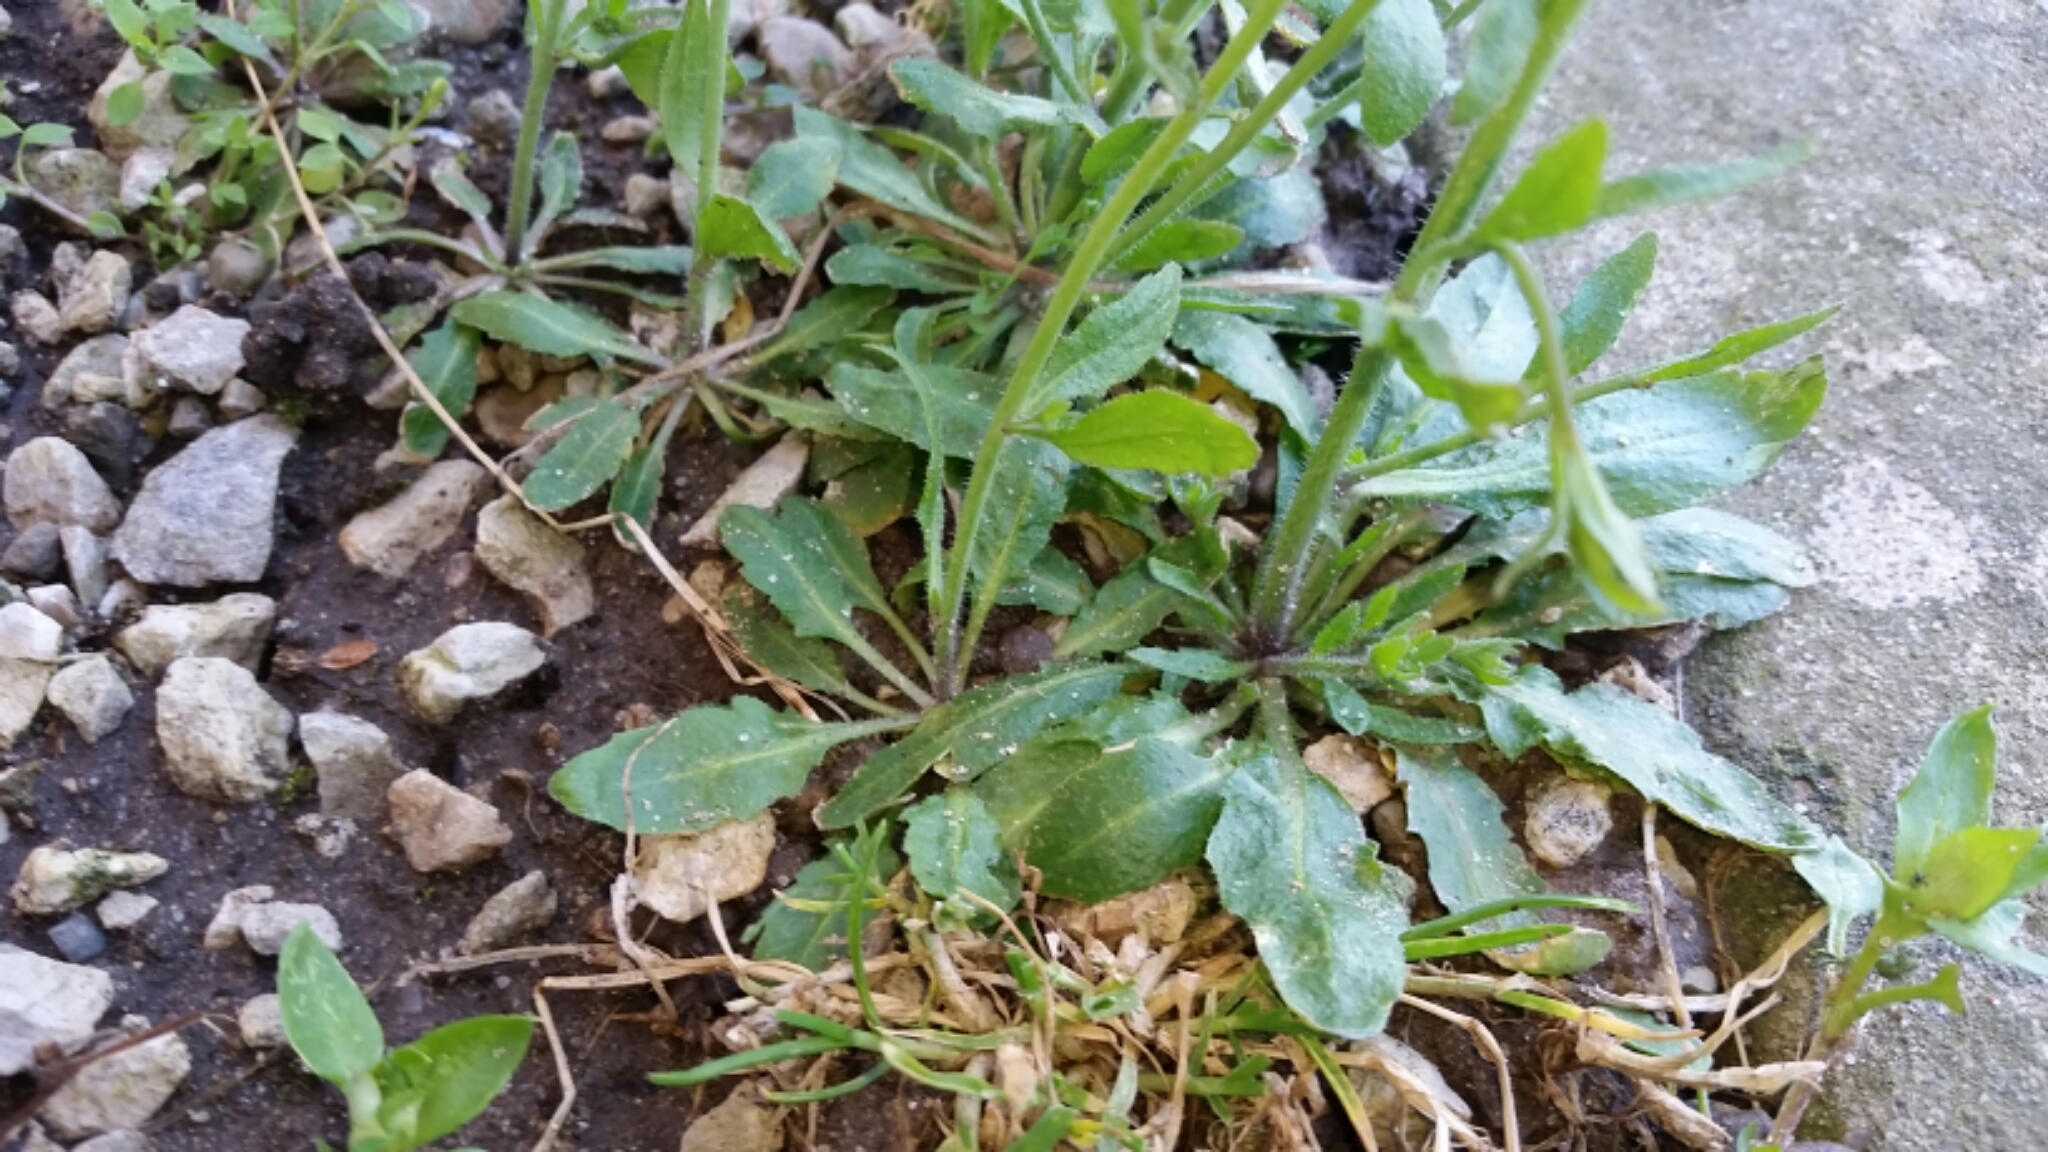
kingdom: Plantae
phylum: Tracheophyta
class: Magnoliopsida
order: Brassicales
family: Brassicaceae
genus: Arabidopsis
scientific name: Arabidopsis thaliana
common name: Thale cress
